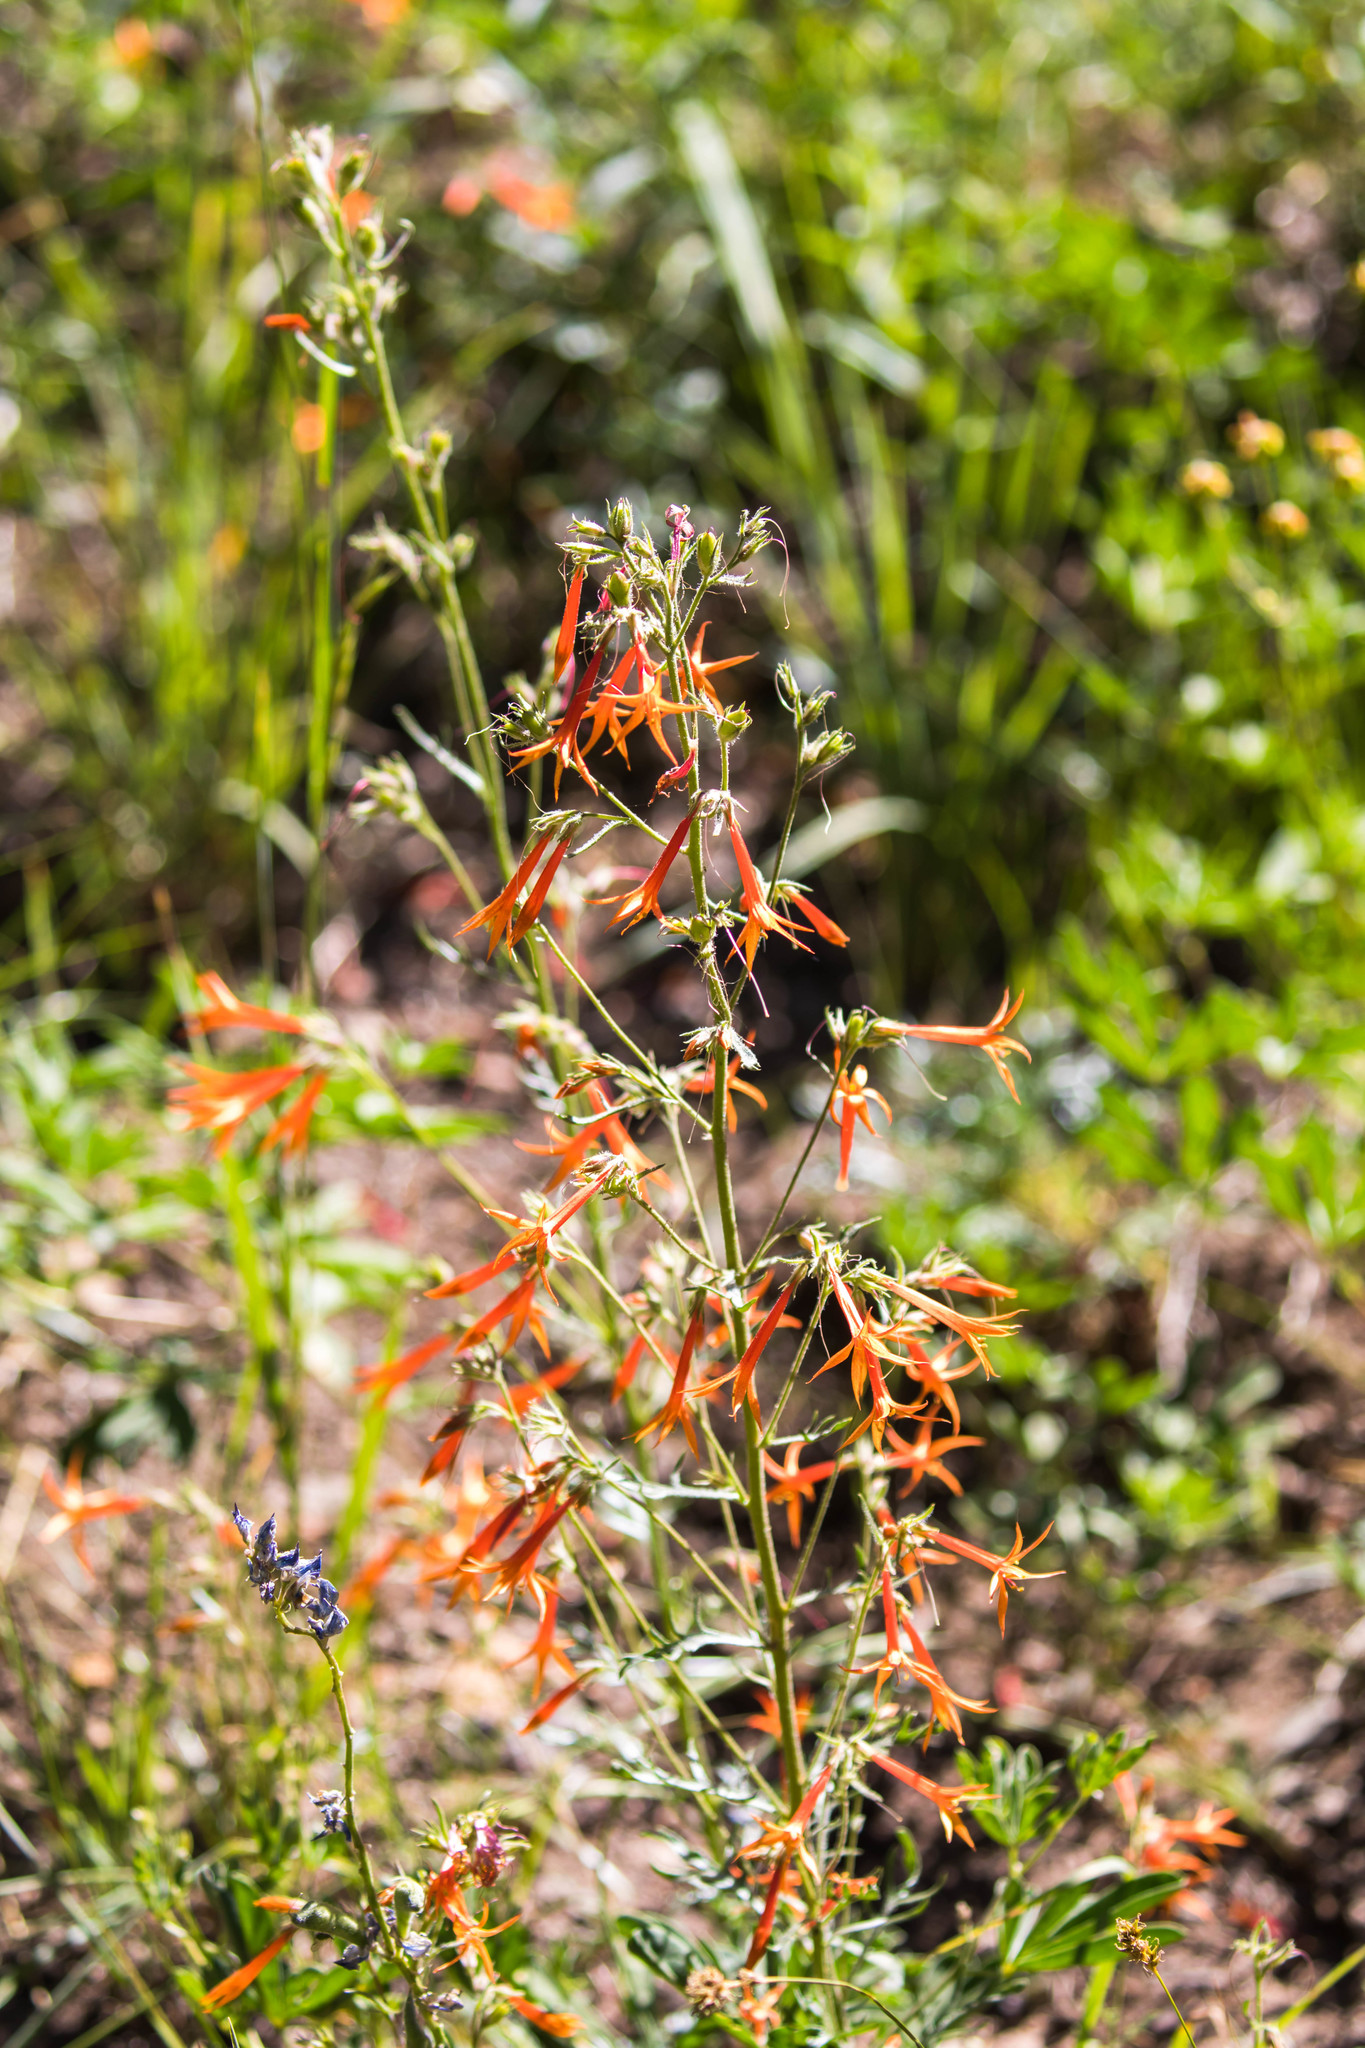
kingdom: Plantae
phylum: Tracheophyta
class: Magnoliopsida
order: Ericales
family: Polemoniaceae
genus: Ipomopsis
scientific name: Ipomopsis aggregata
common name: Scarlet gilia
